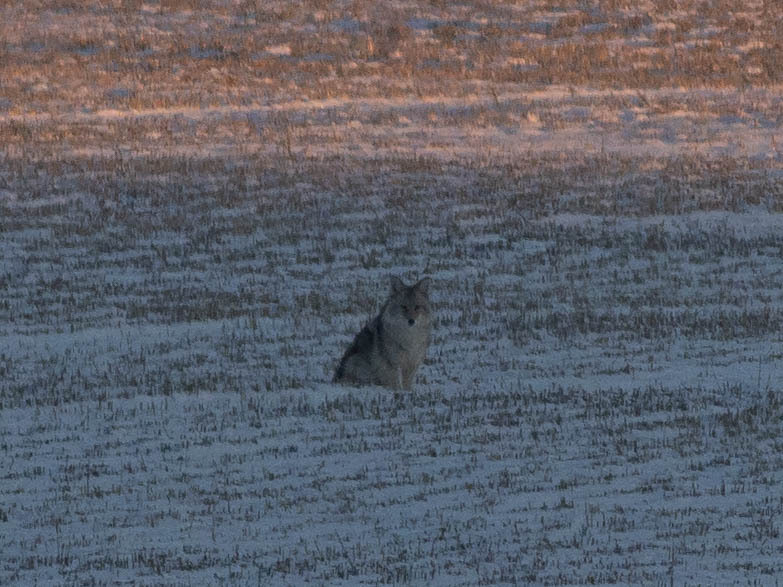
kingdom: Animalia
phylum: Chordata
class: Mammalia
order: Carnivora
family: Canidae
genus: Canis
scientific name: Canis latrans
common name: Coyote
